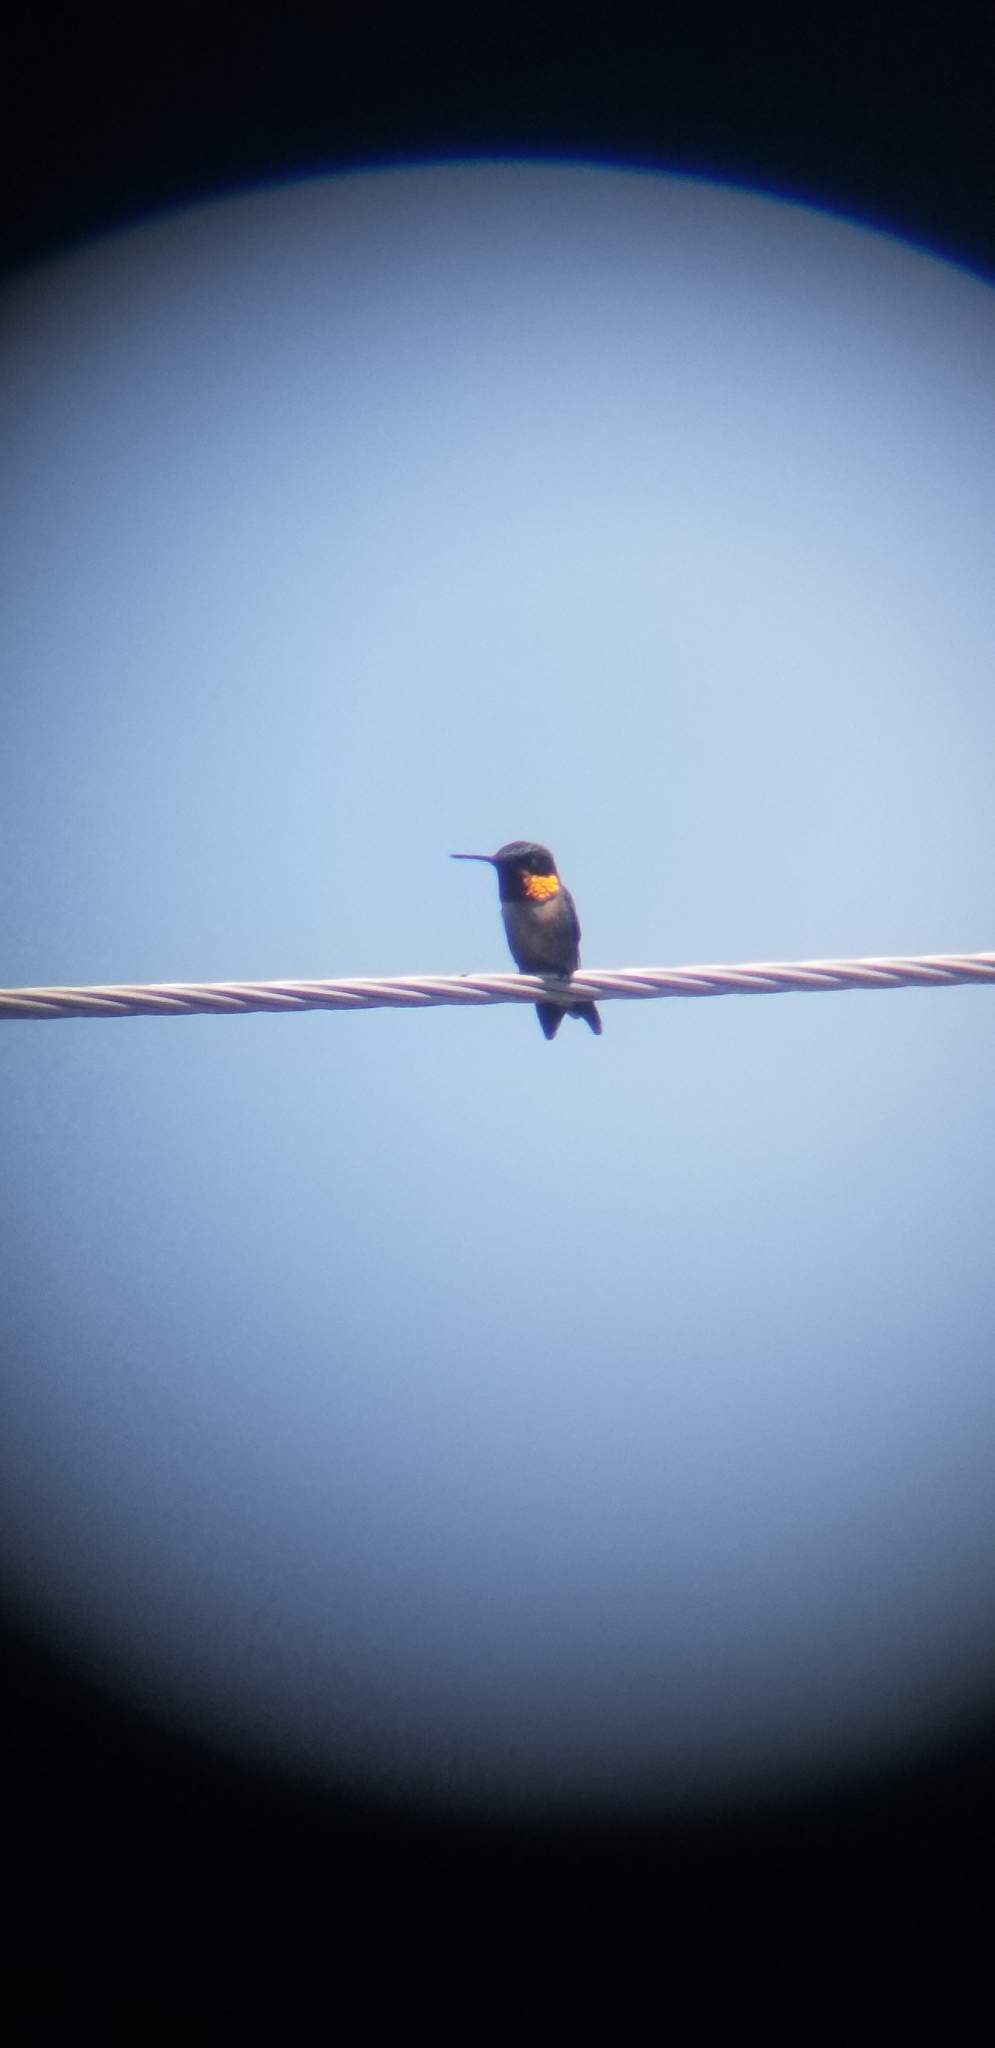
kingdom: Animalia
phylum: Chordata
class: Aves
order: Apodiformes
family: Trochilidae
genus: Archilochus
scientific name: Archilochus colubris
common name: Ruby-throated hummingbird
